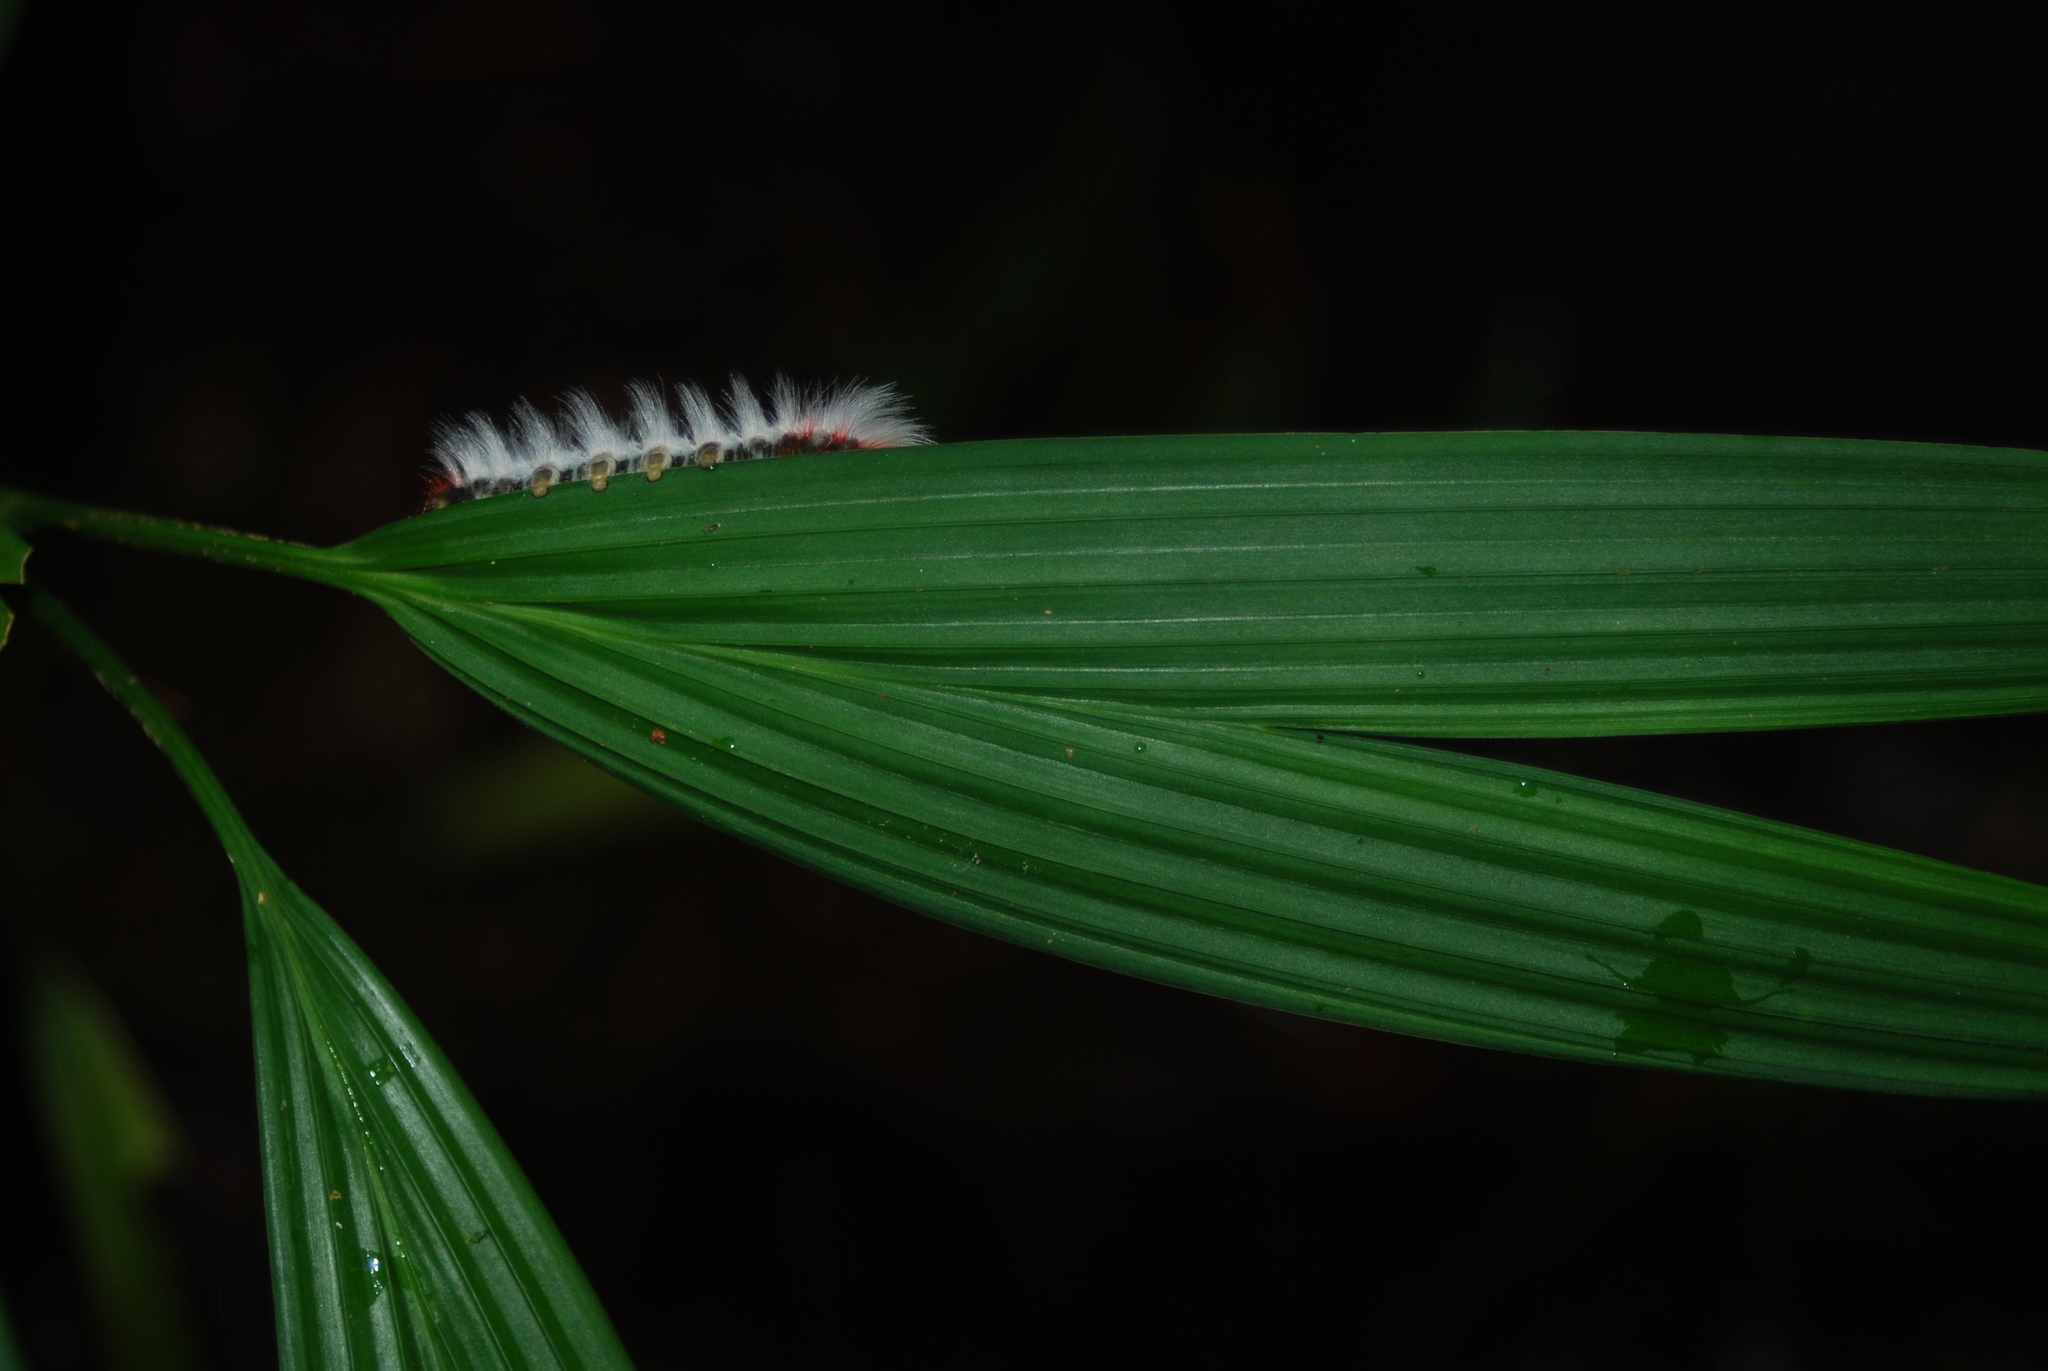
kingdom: Animalia
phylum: Arthropoda
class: Insecta
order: Lepidoptera
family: Eupterotidae
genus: Neopreptos
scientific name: Neopreptos marathusa
